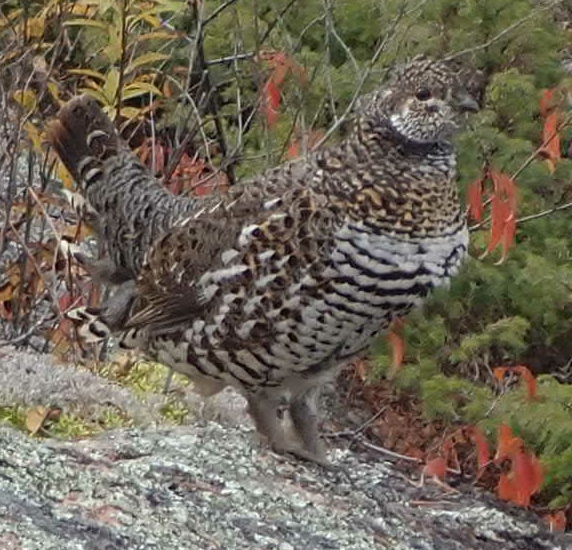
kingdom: Animalia
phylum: Chordata
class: Aves
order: Galliformes
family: Phasianidae
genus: Canachites
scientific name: Canachites canadensis
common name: Spruce grouse
